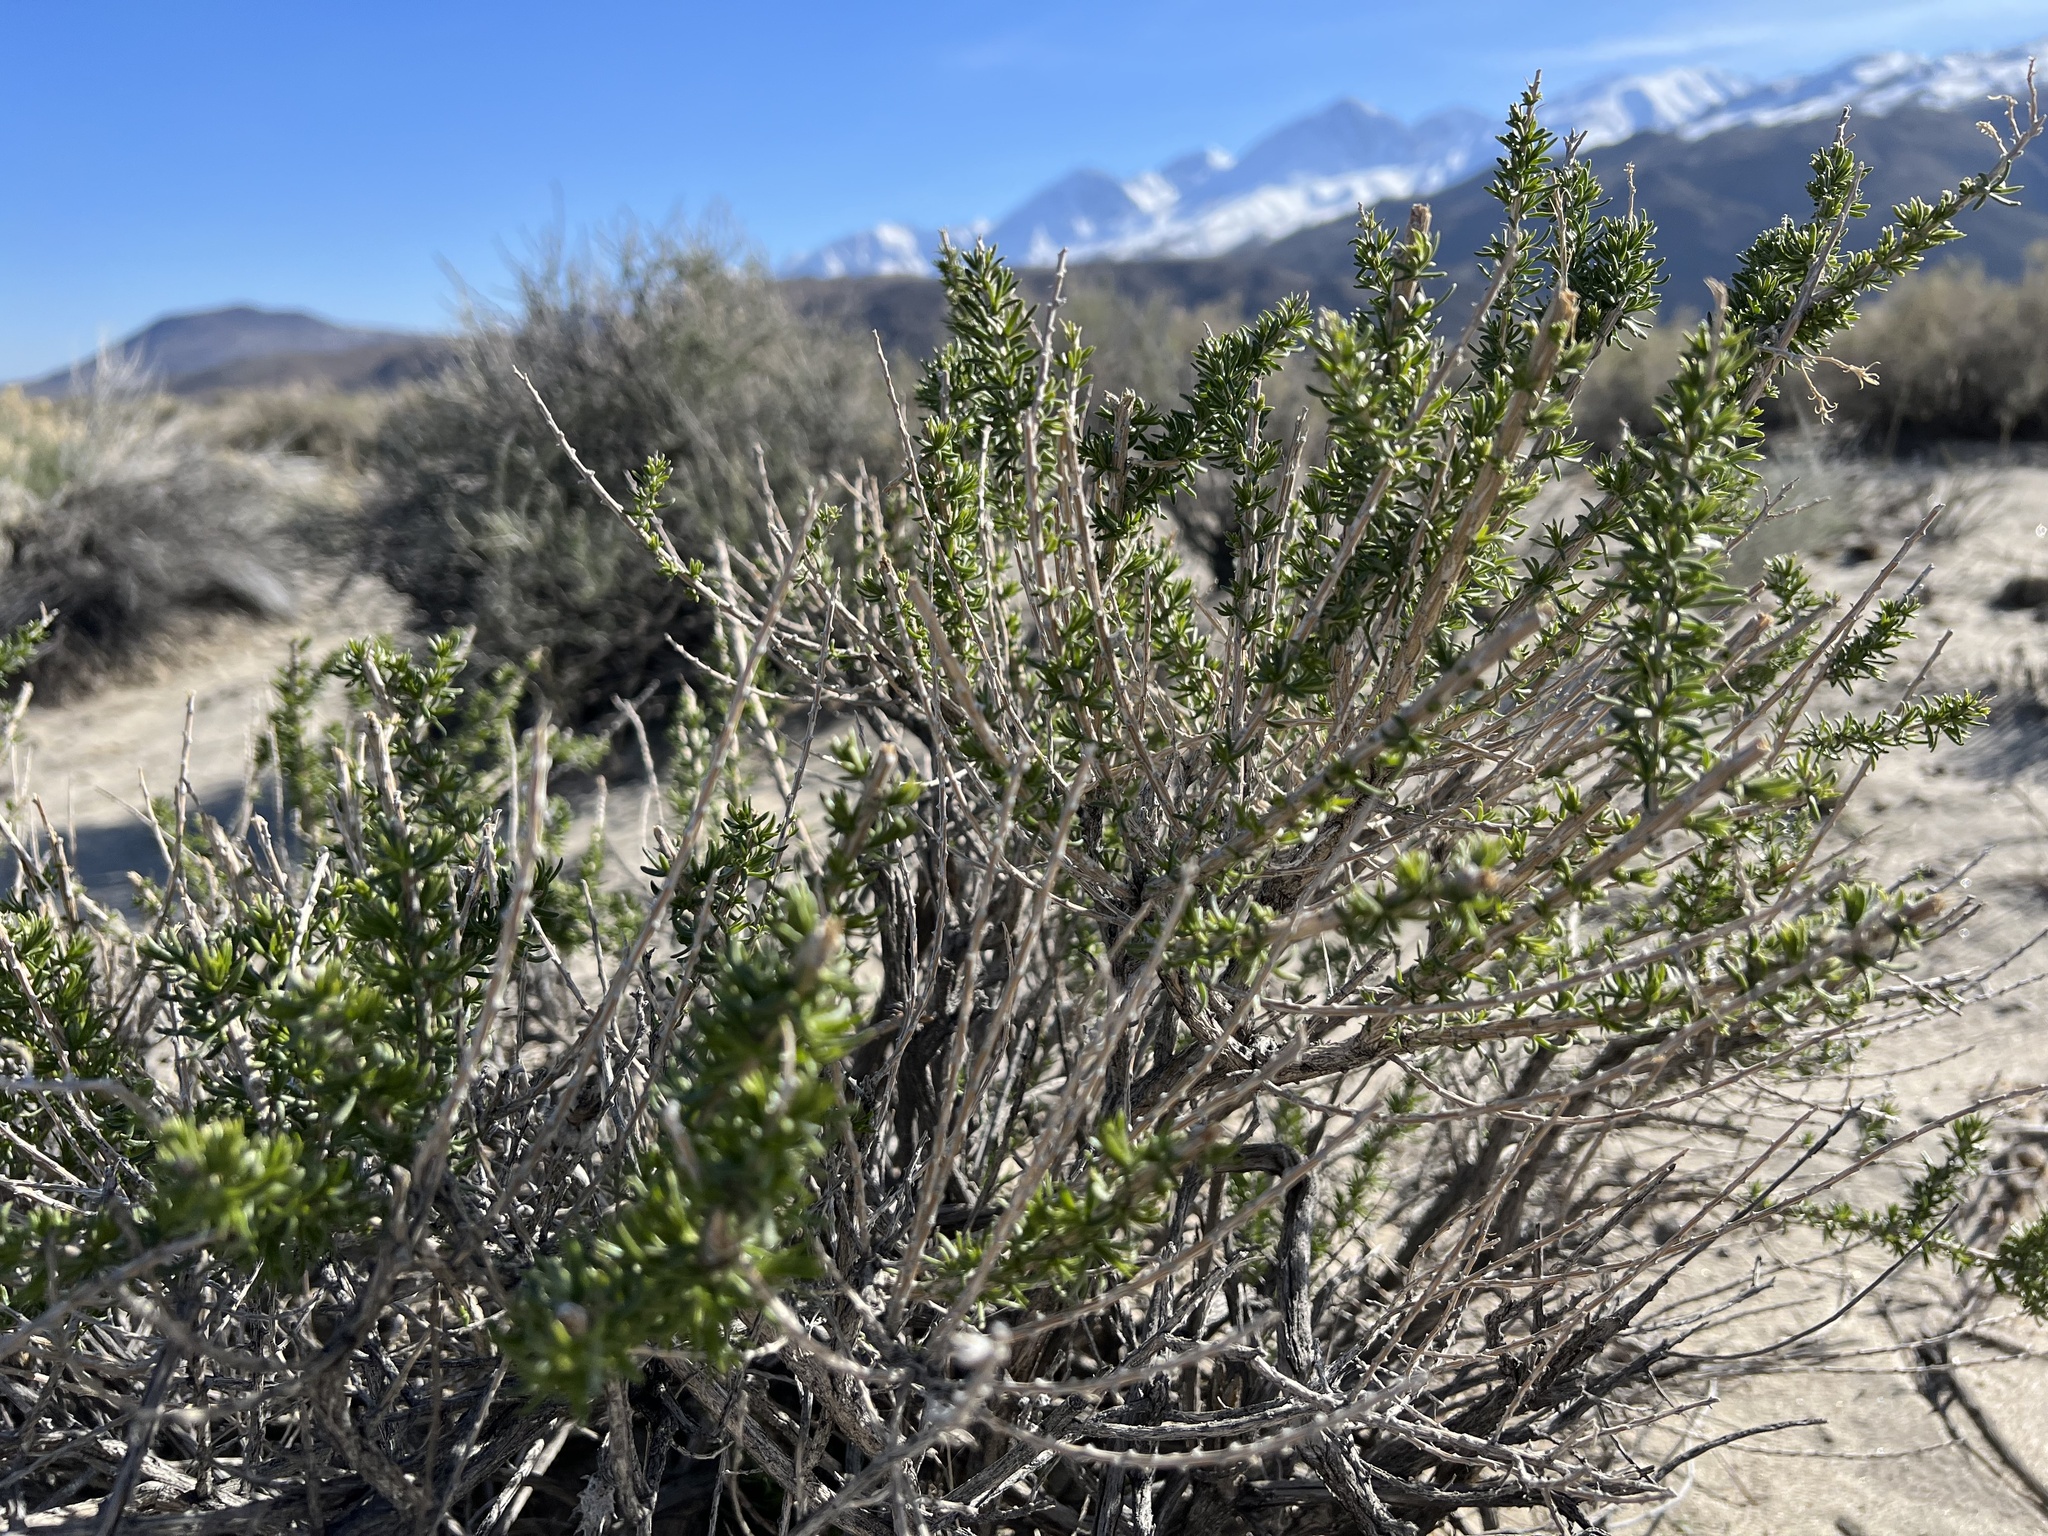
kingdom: Plantae
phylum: Tracheophyta
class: Magnoliopsida
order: Asterales
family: Asteraceae
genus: Tetradymia
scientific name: Tetradymia glabrata
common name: Smooth tetradymia
